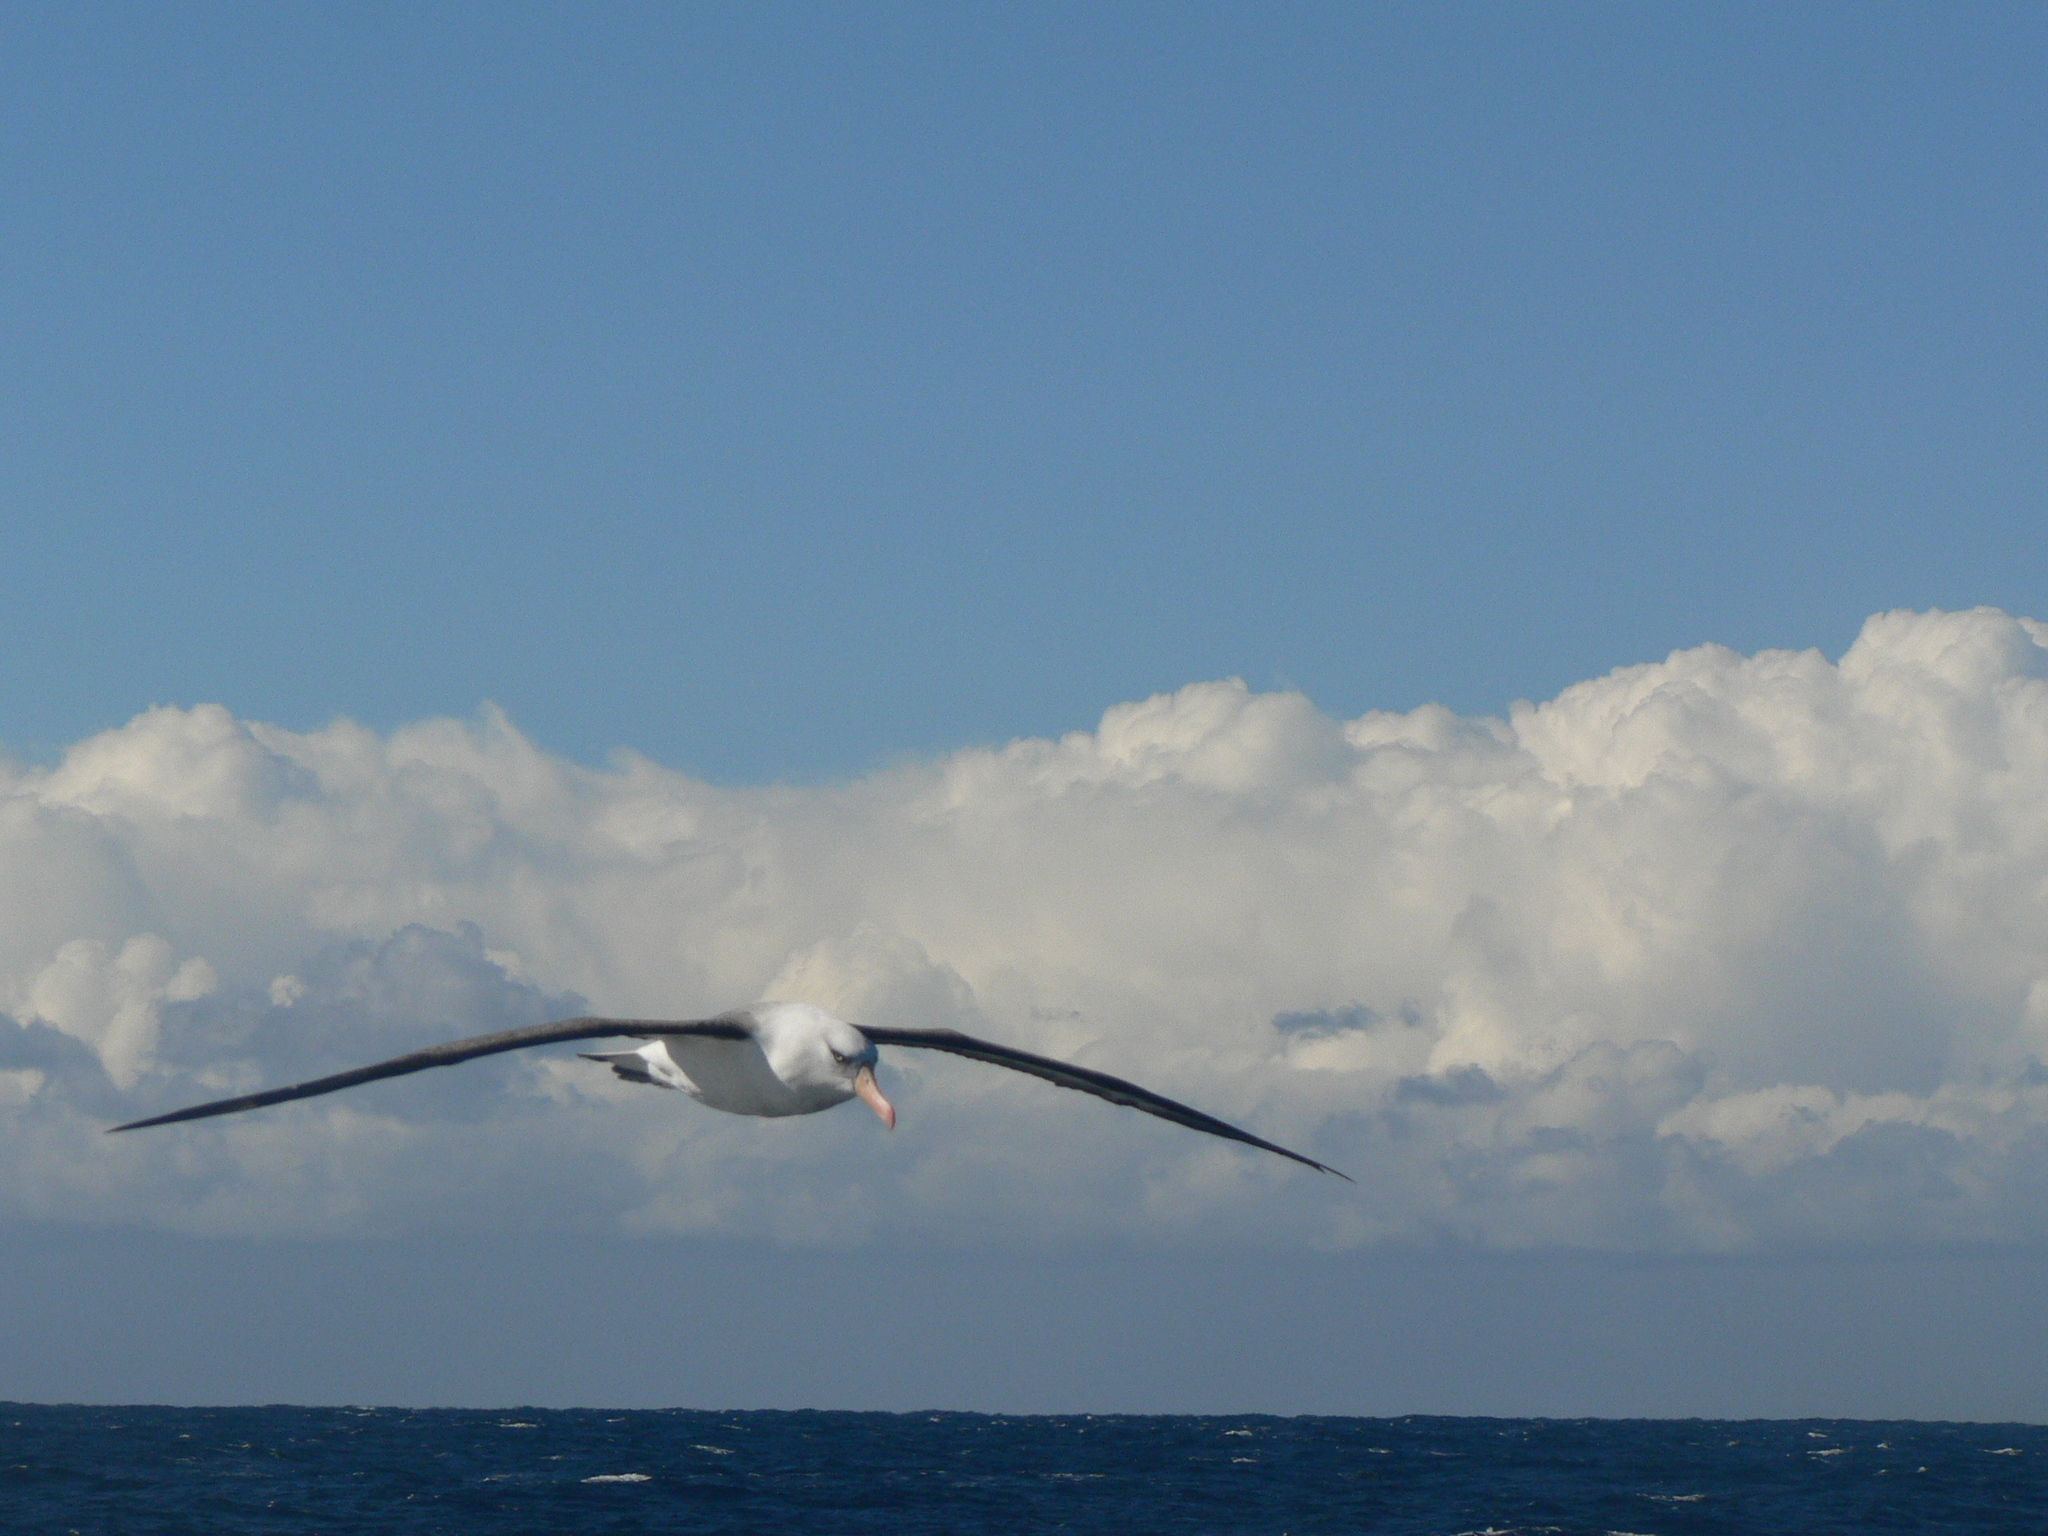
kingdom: Animalia
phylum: Chordata
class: Aves
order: Procellariiformes
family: Diomedeidae
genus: Thalassarche
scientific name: Thalassarche impavida
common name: Campbell albatross
